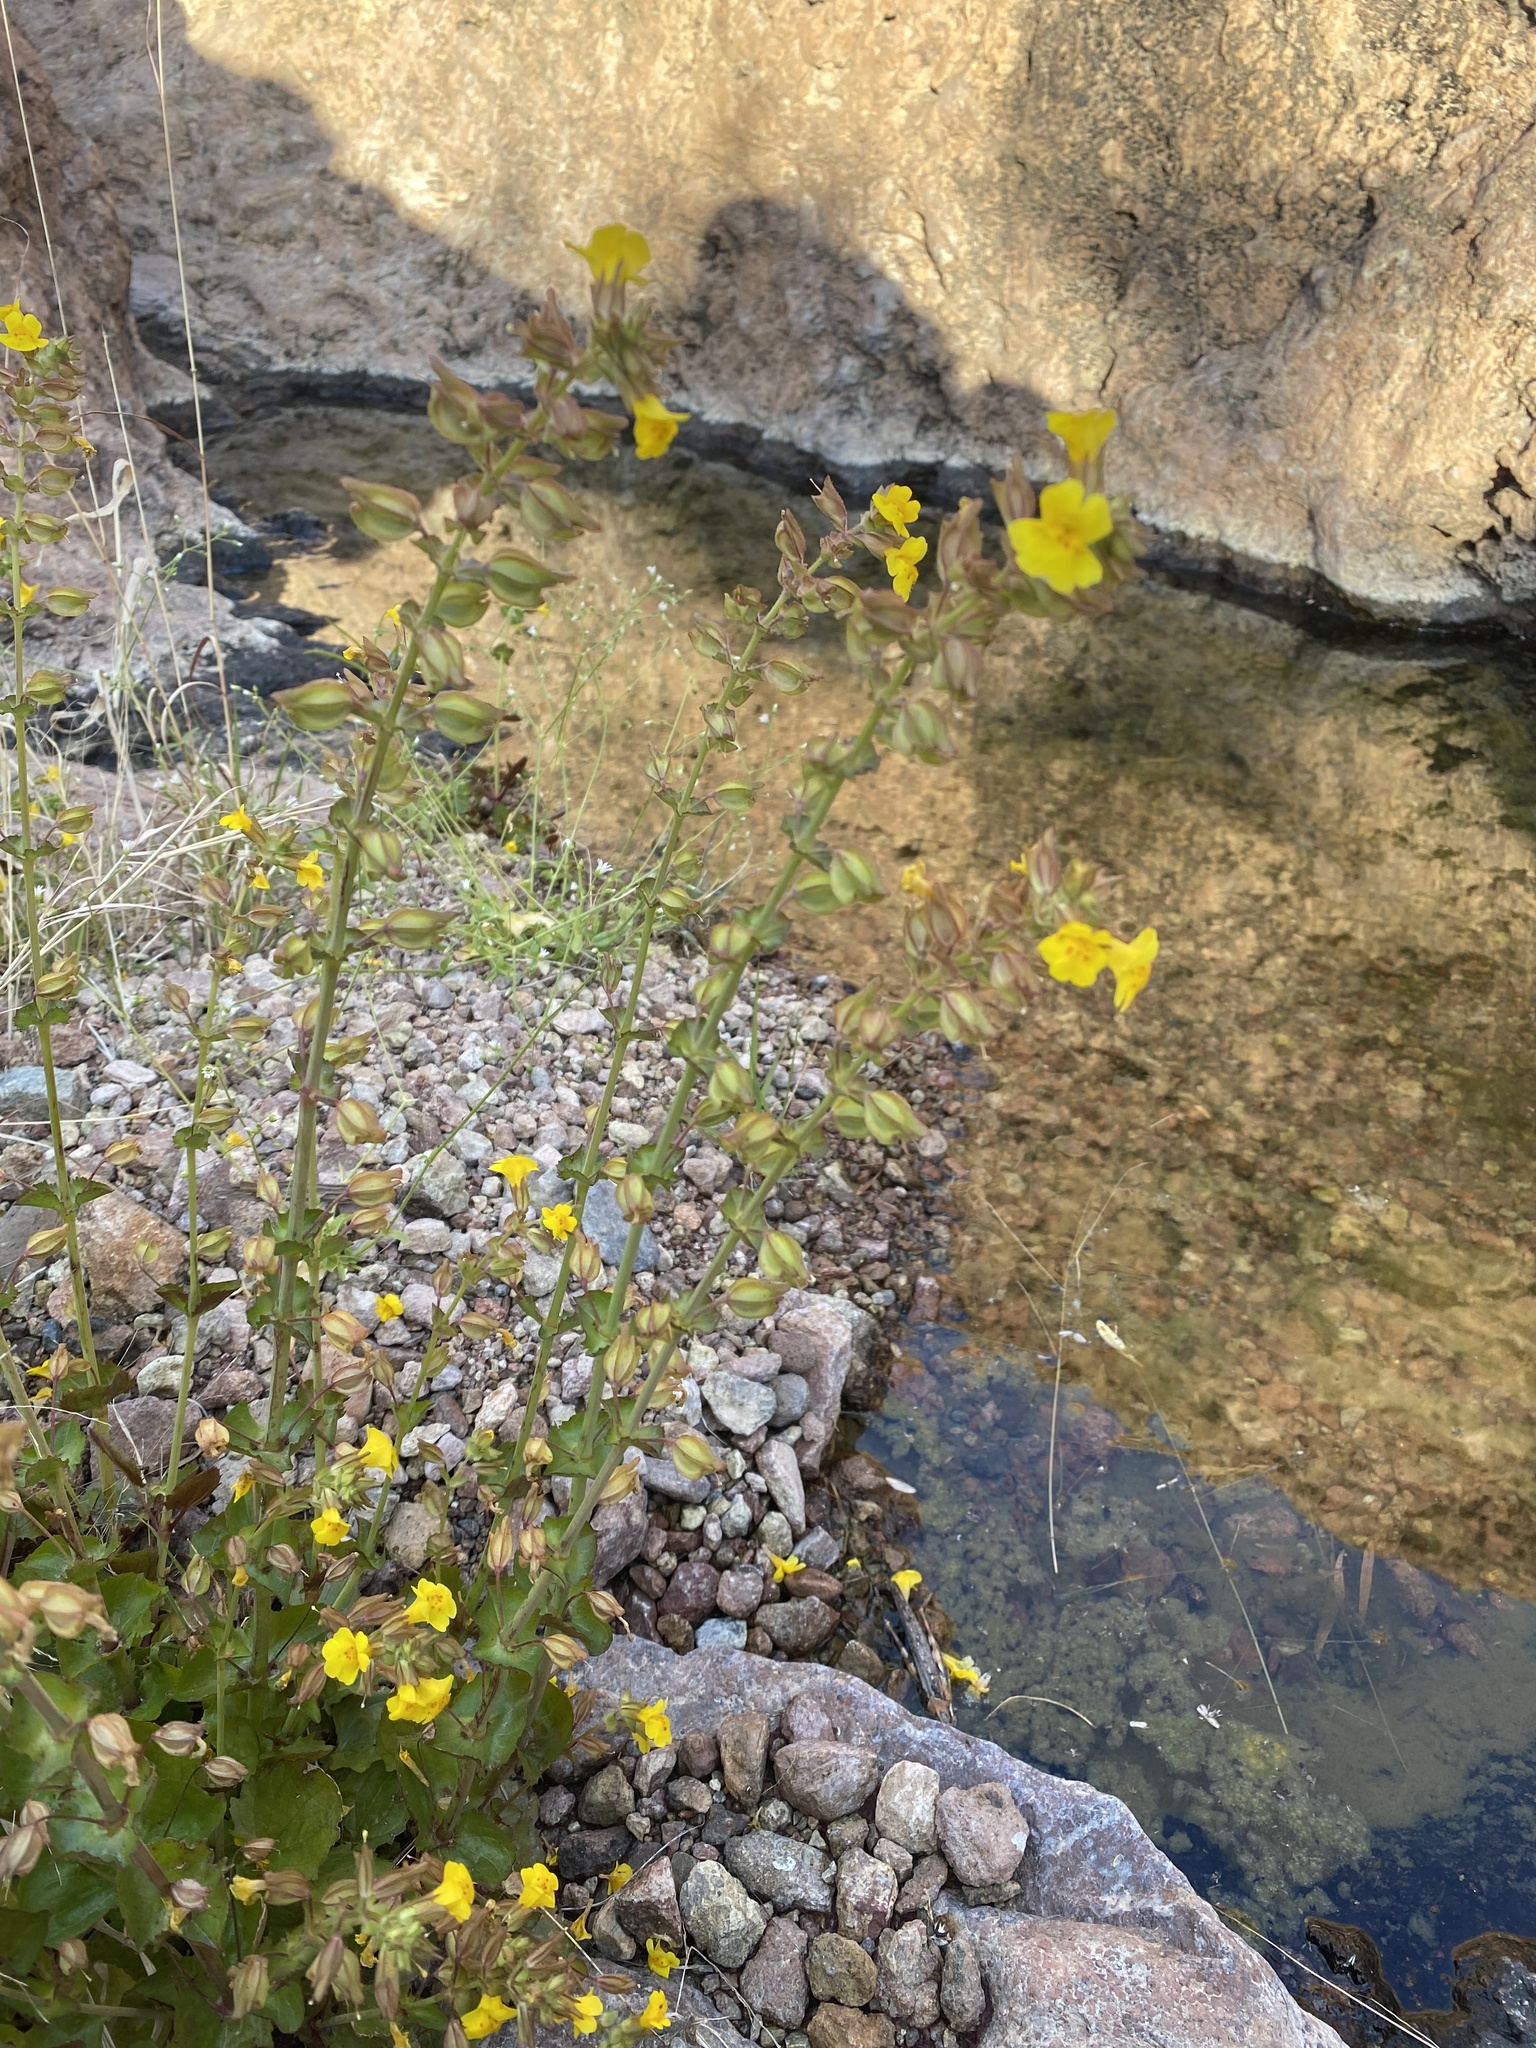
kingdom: Plantae
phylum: Tracheophyta
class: Magnoliopsida
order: Lamiales
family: Phrymaceae
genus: Erythranthe
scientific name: Erythranthe guttata
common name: Monkeyflower
